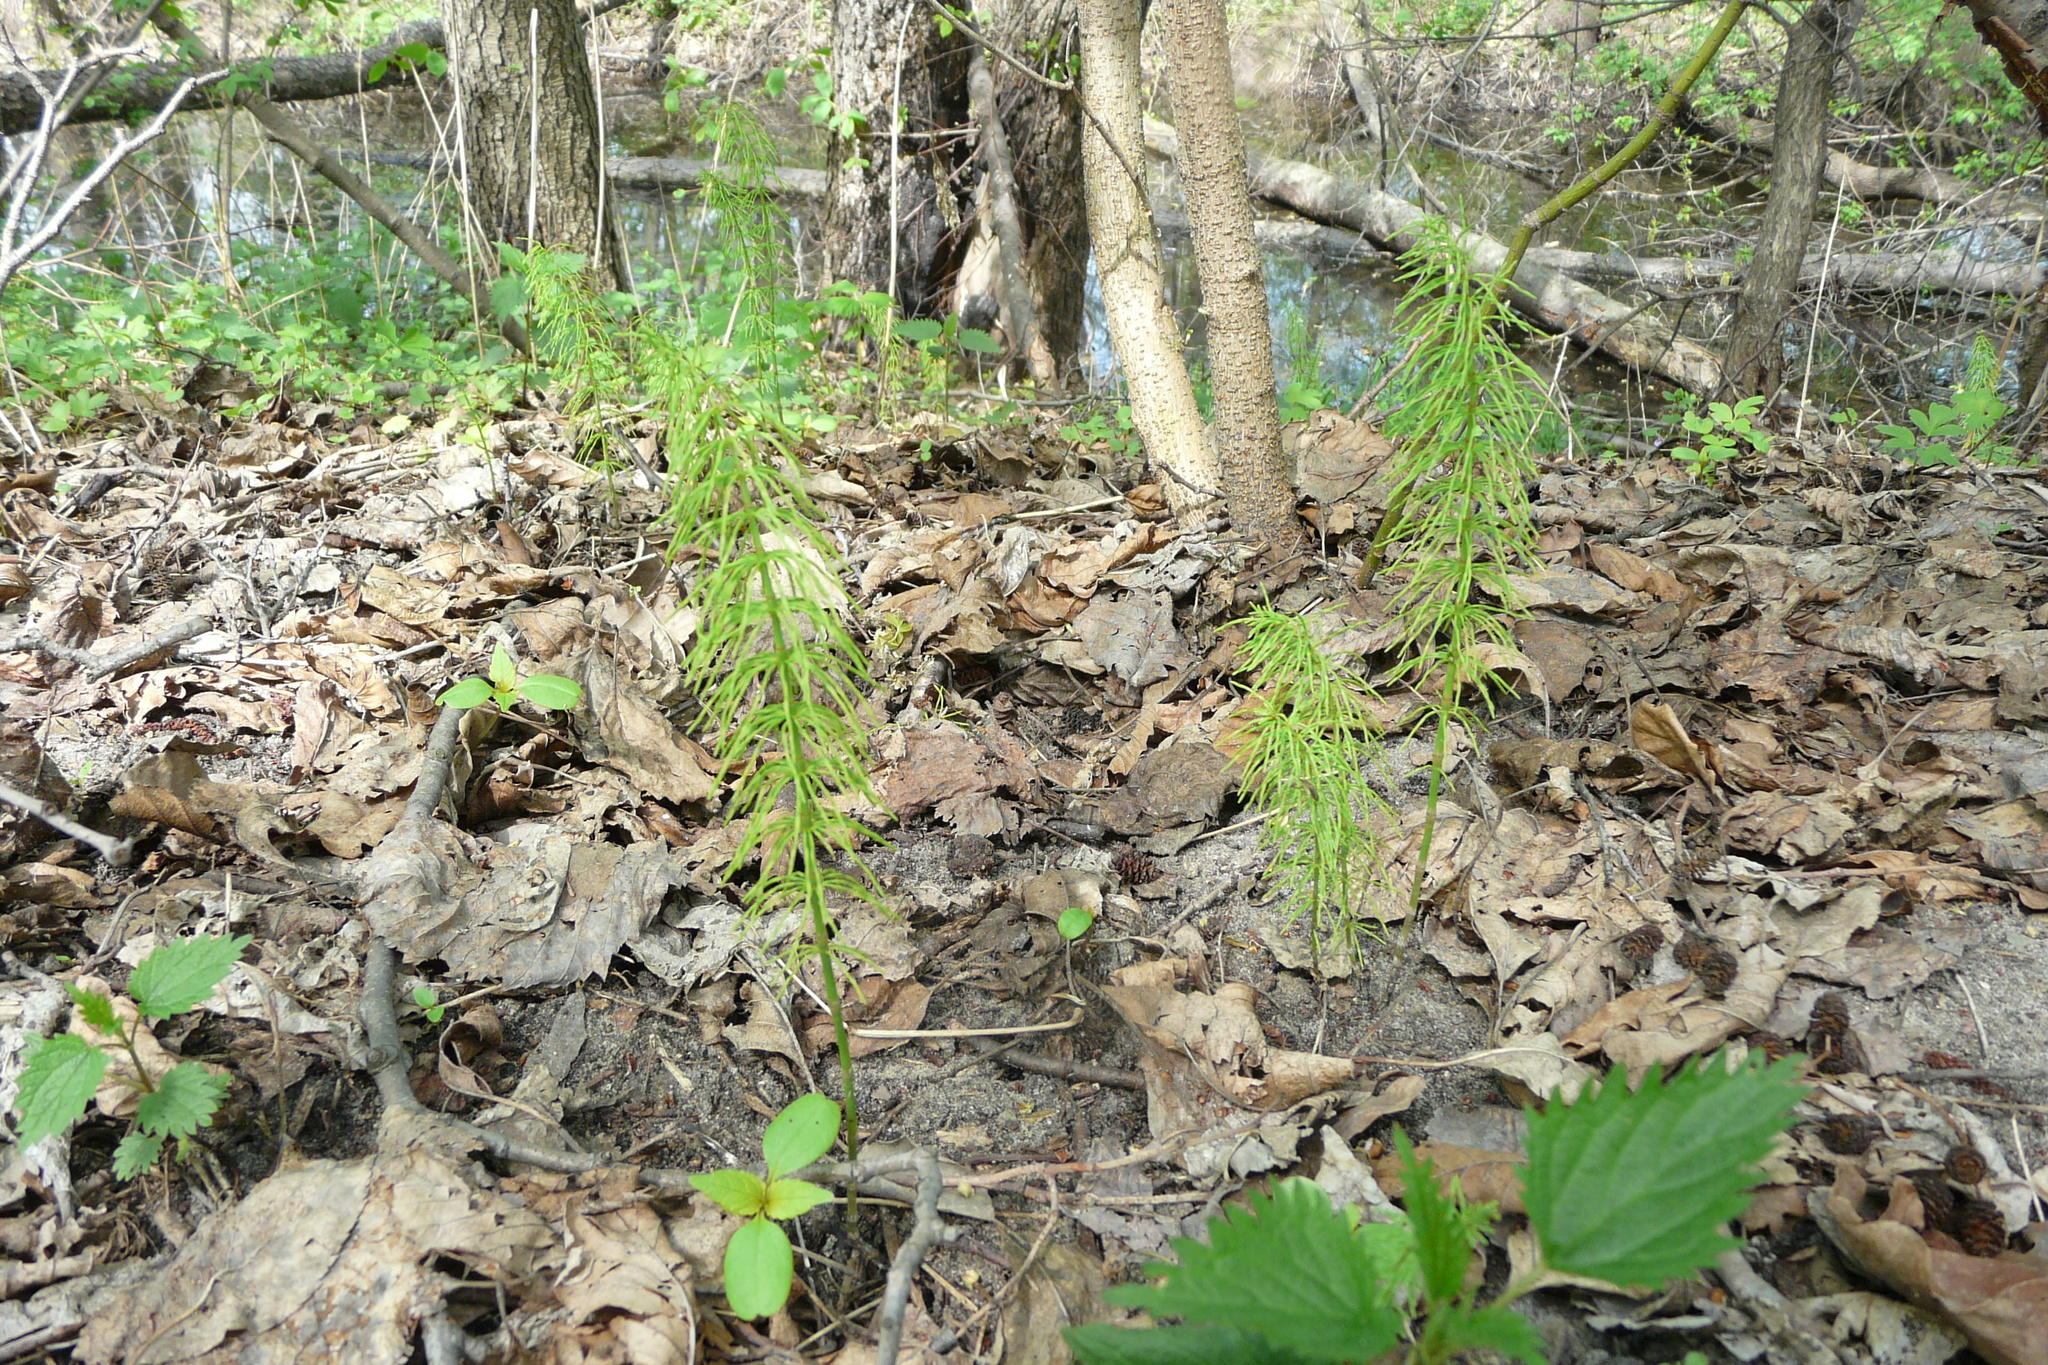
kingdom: Plantae
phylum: Tracheophyta
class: Polypodiopsida
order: Equisetales
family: Equisetaceae
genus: Equisetum
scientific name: Equisetum pratense
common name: Meadow horsetail
